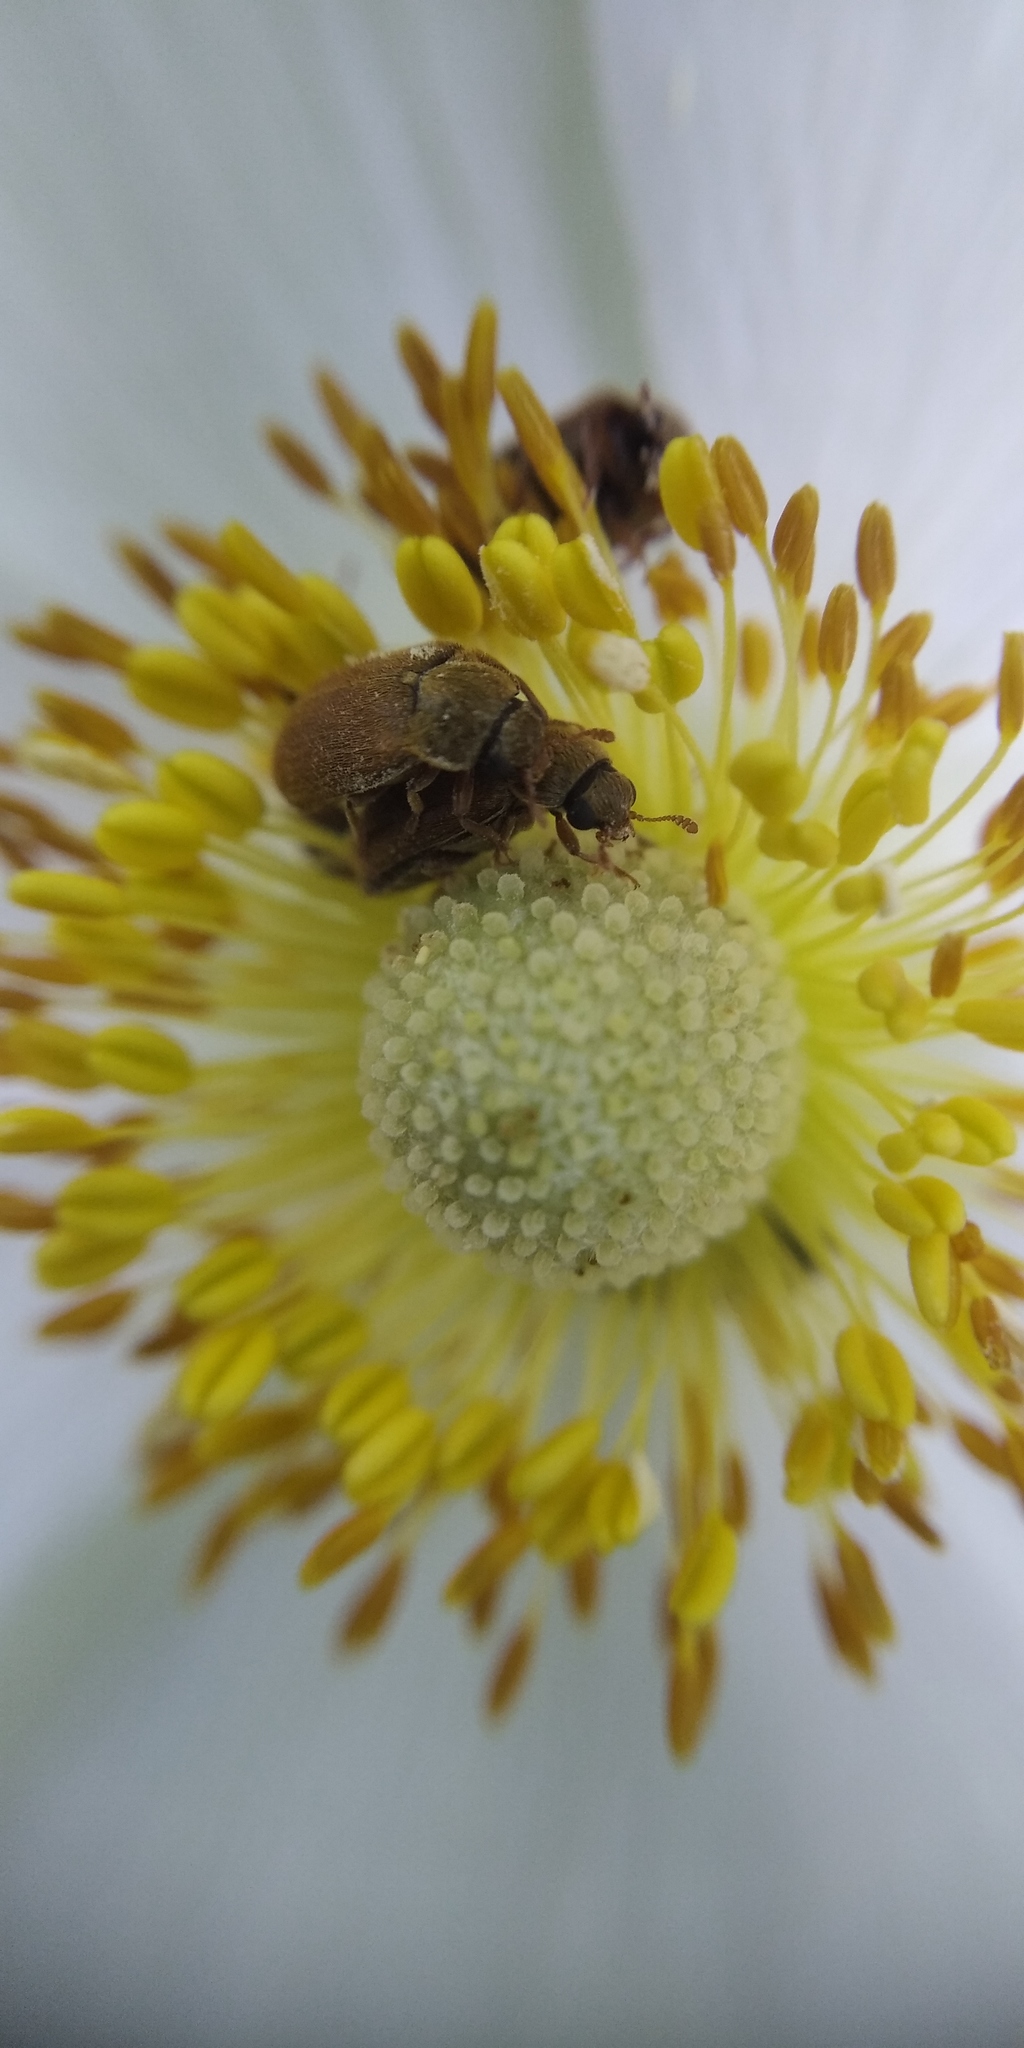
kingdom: Animalia
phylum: Arthropoda
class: Insecta
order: Coleoptera
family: Byturidae
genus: Byturus
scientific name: Byturus ochraceus
